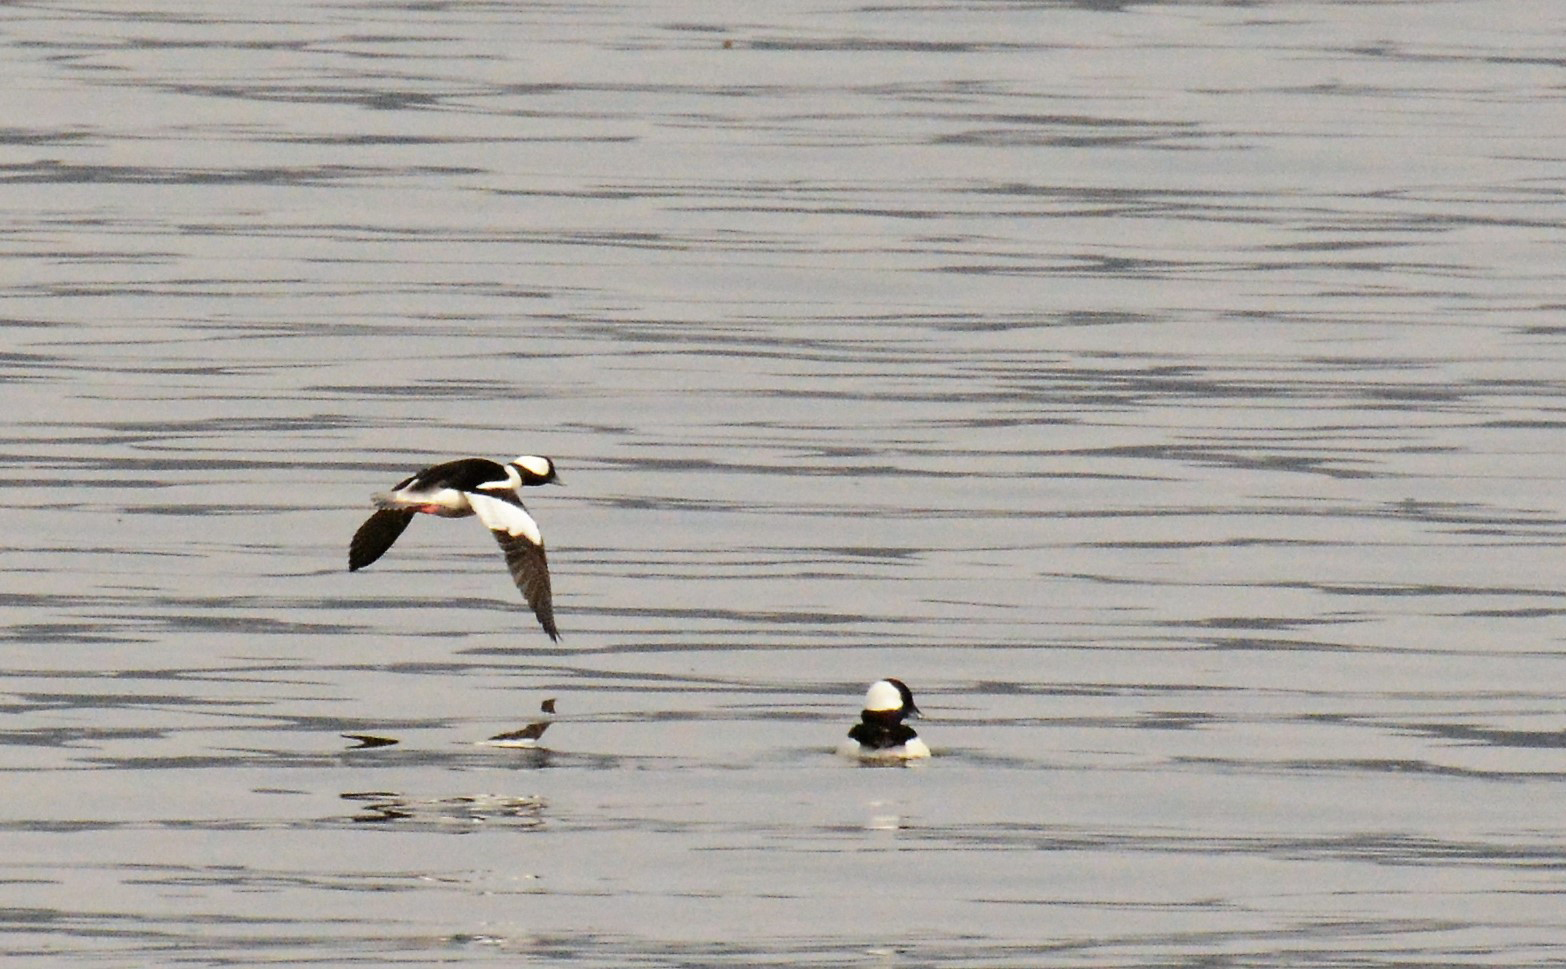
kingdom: Animalia
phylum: Chordata
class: Aves
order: Anseriformes
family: Anatidae
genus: Bucephala
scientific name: Bucephala albeola
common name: Bufflehead
